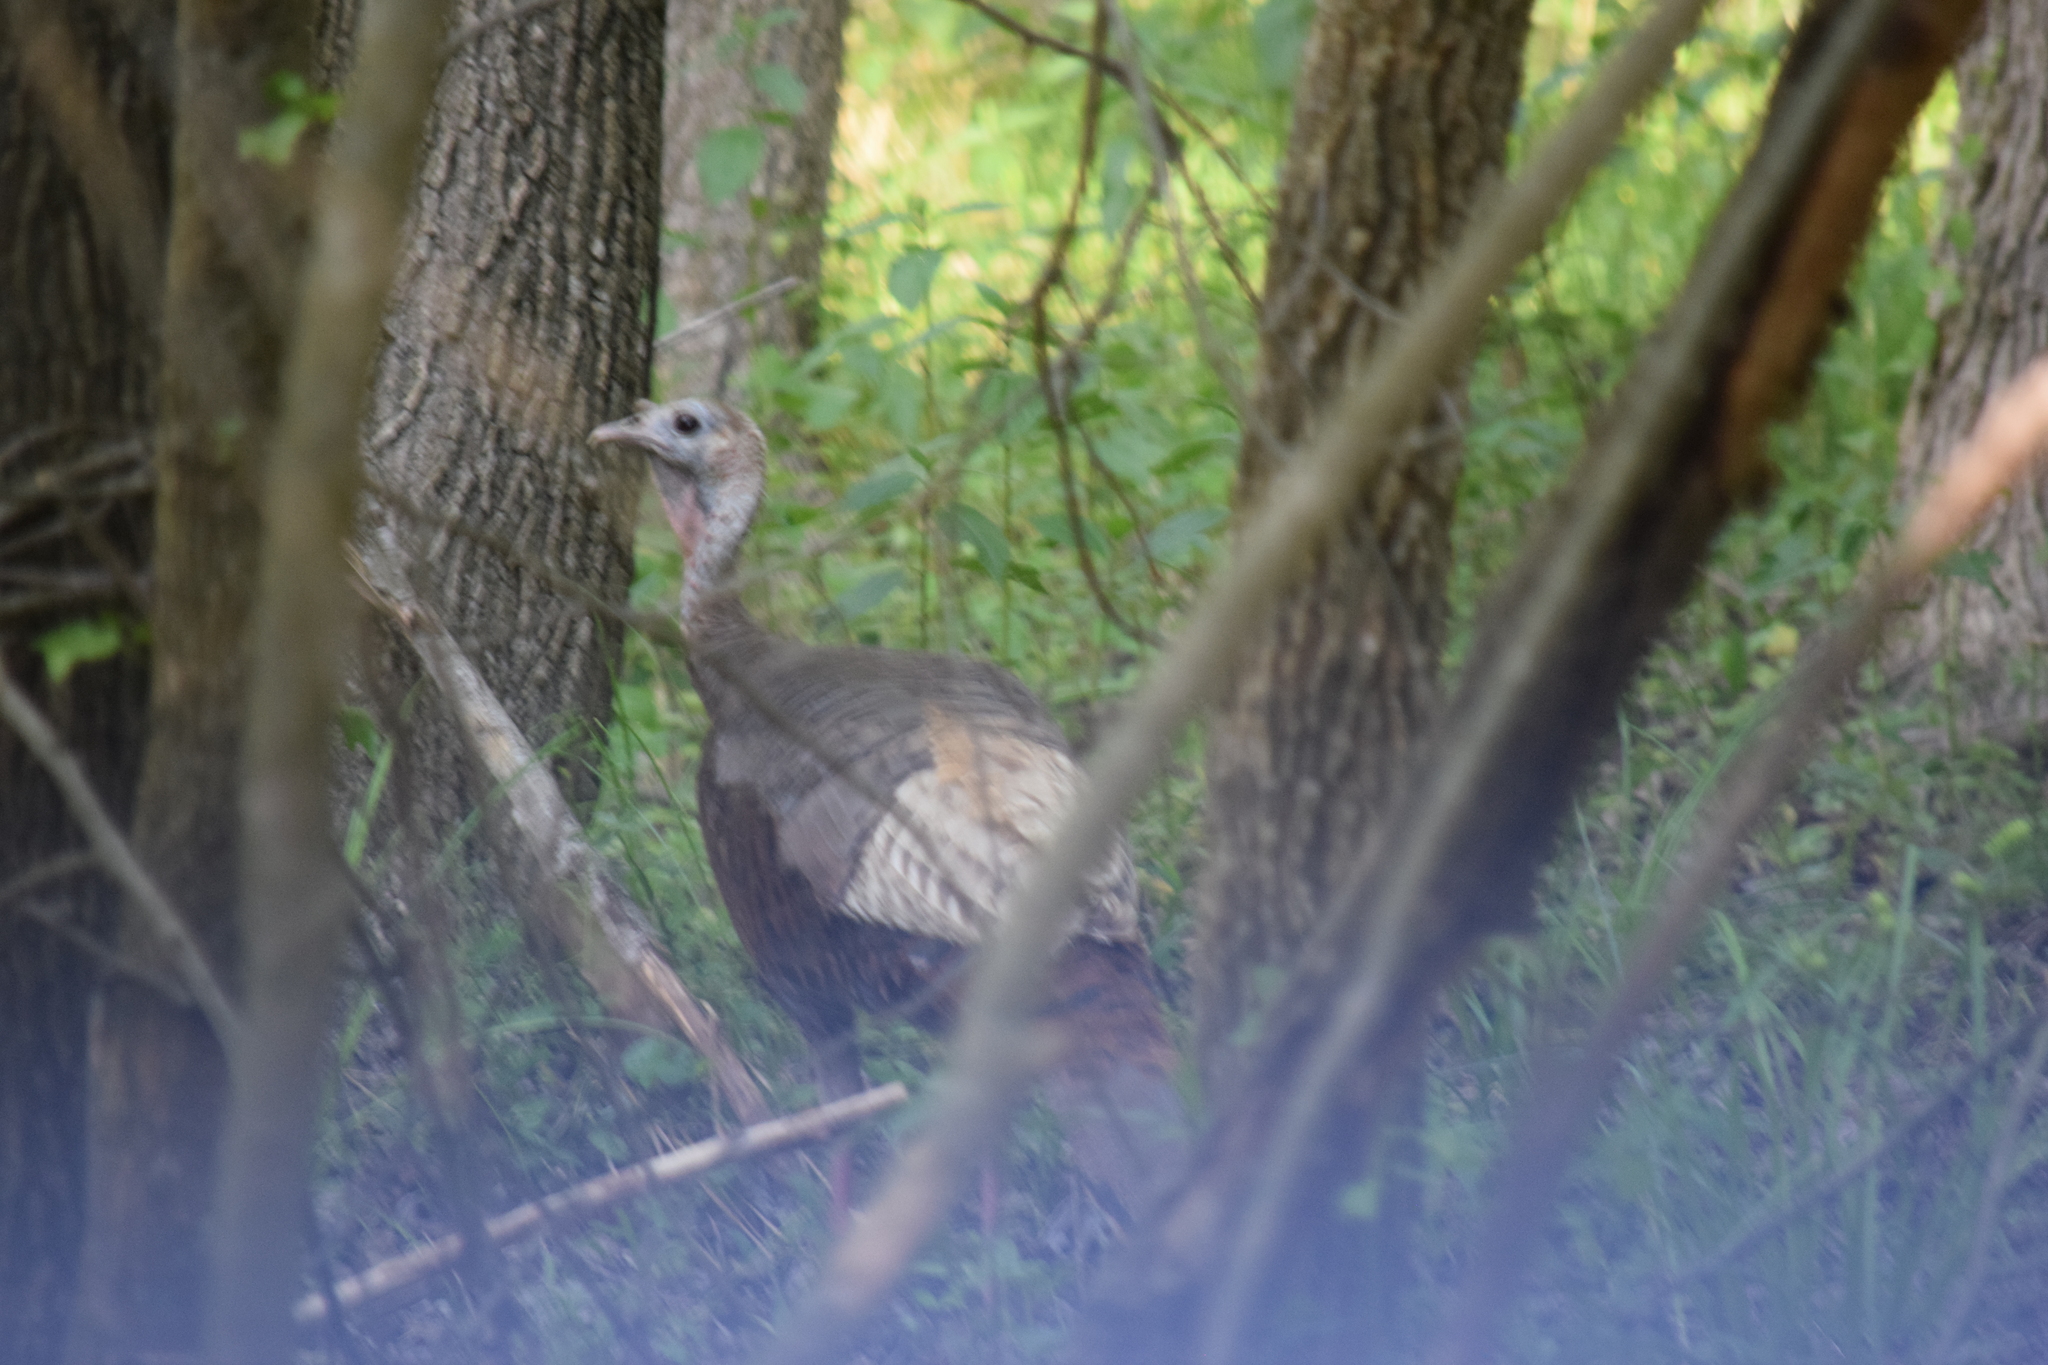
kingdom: Animalia
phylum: Chordata
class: Aves
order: Galliformes
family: Phasianidae
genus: Meleagris
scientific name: Meleagris gallopavo
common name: Wild turkey
